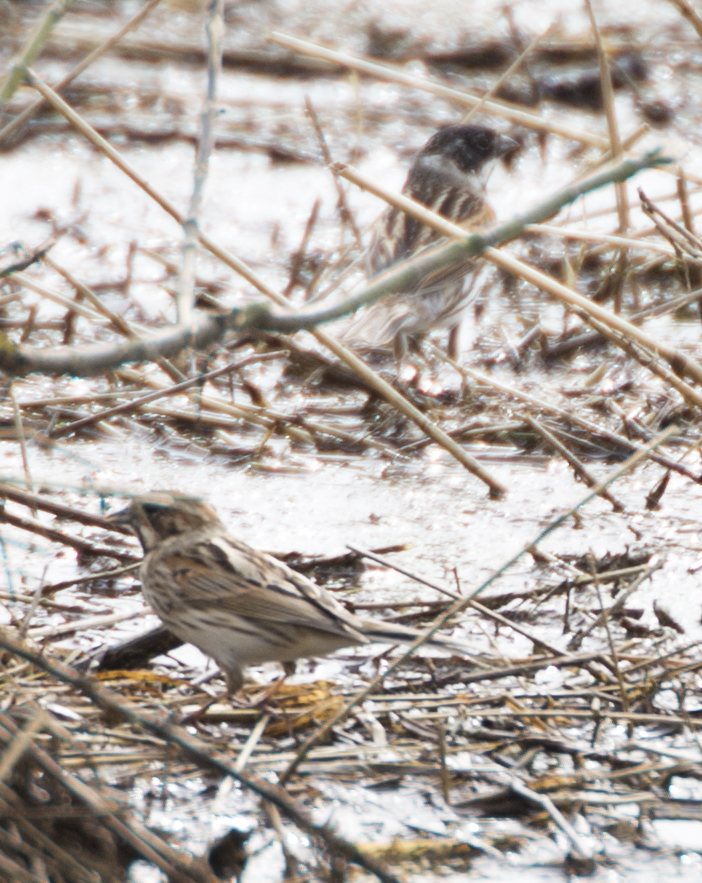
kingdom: Animalia
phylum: Chordata
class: Aves
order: Passeriformes
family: Emberizidae
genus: Emberiza
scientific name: Emberiza schoeniclus
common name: Reed bunting
